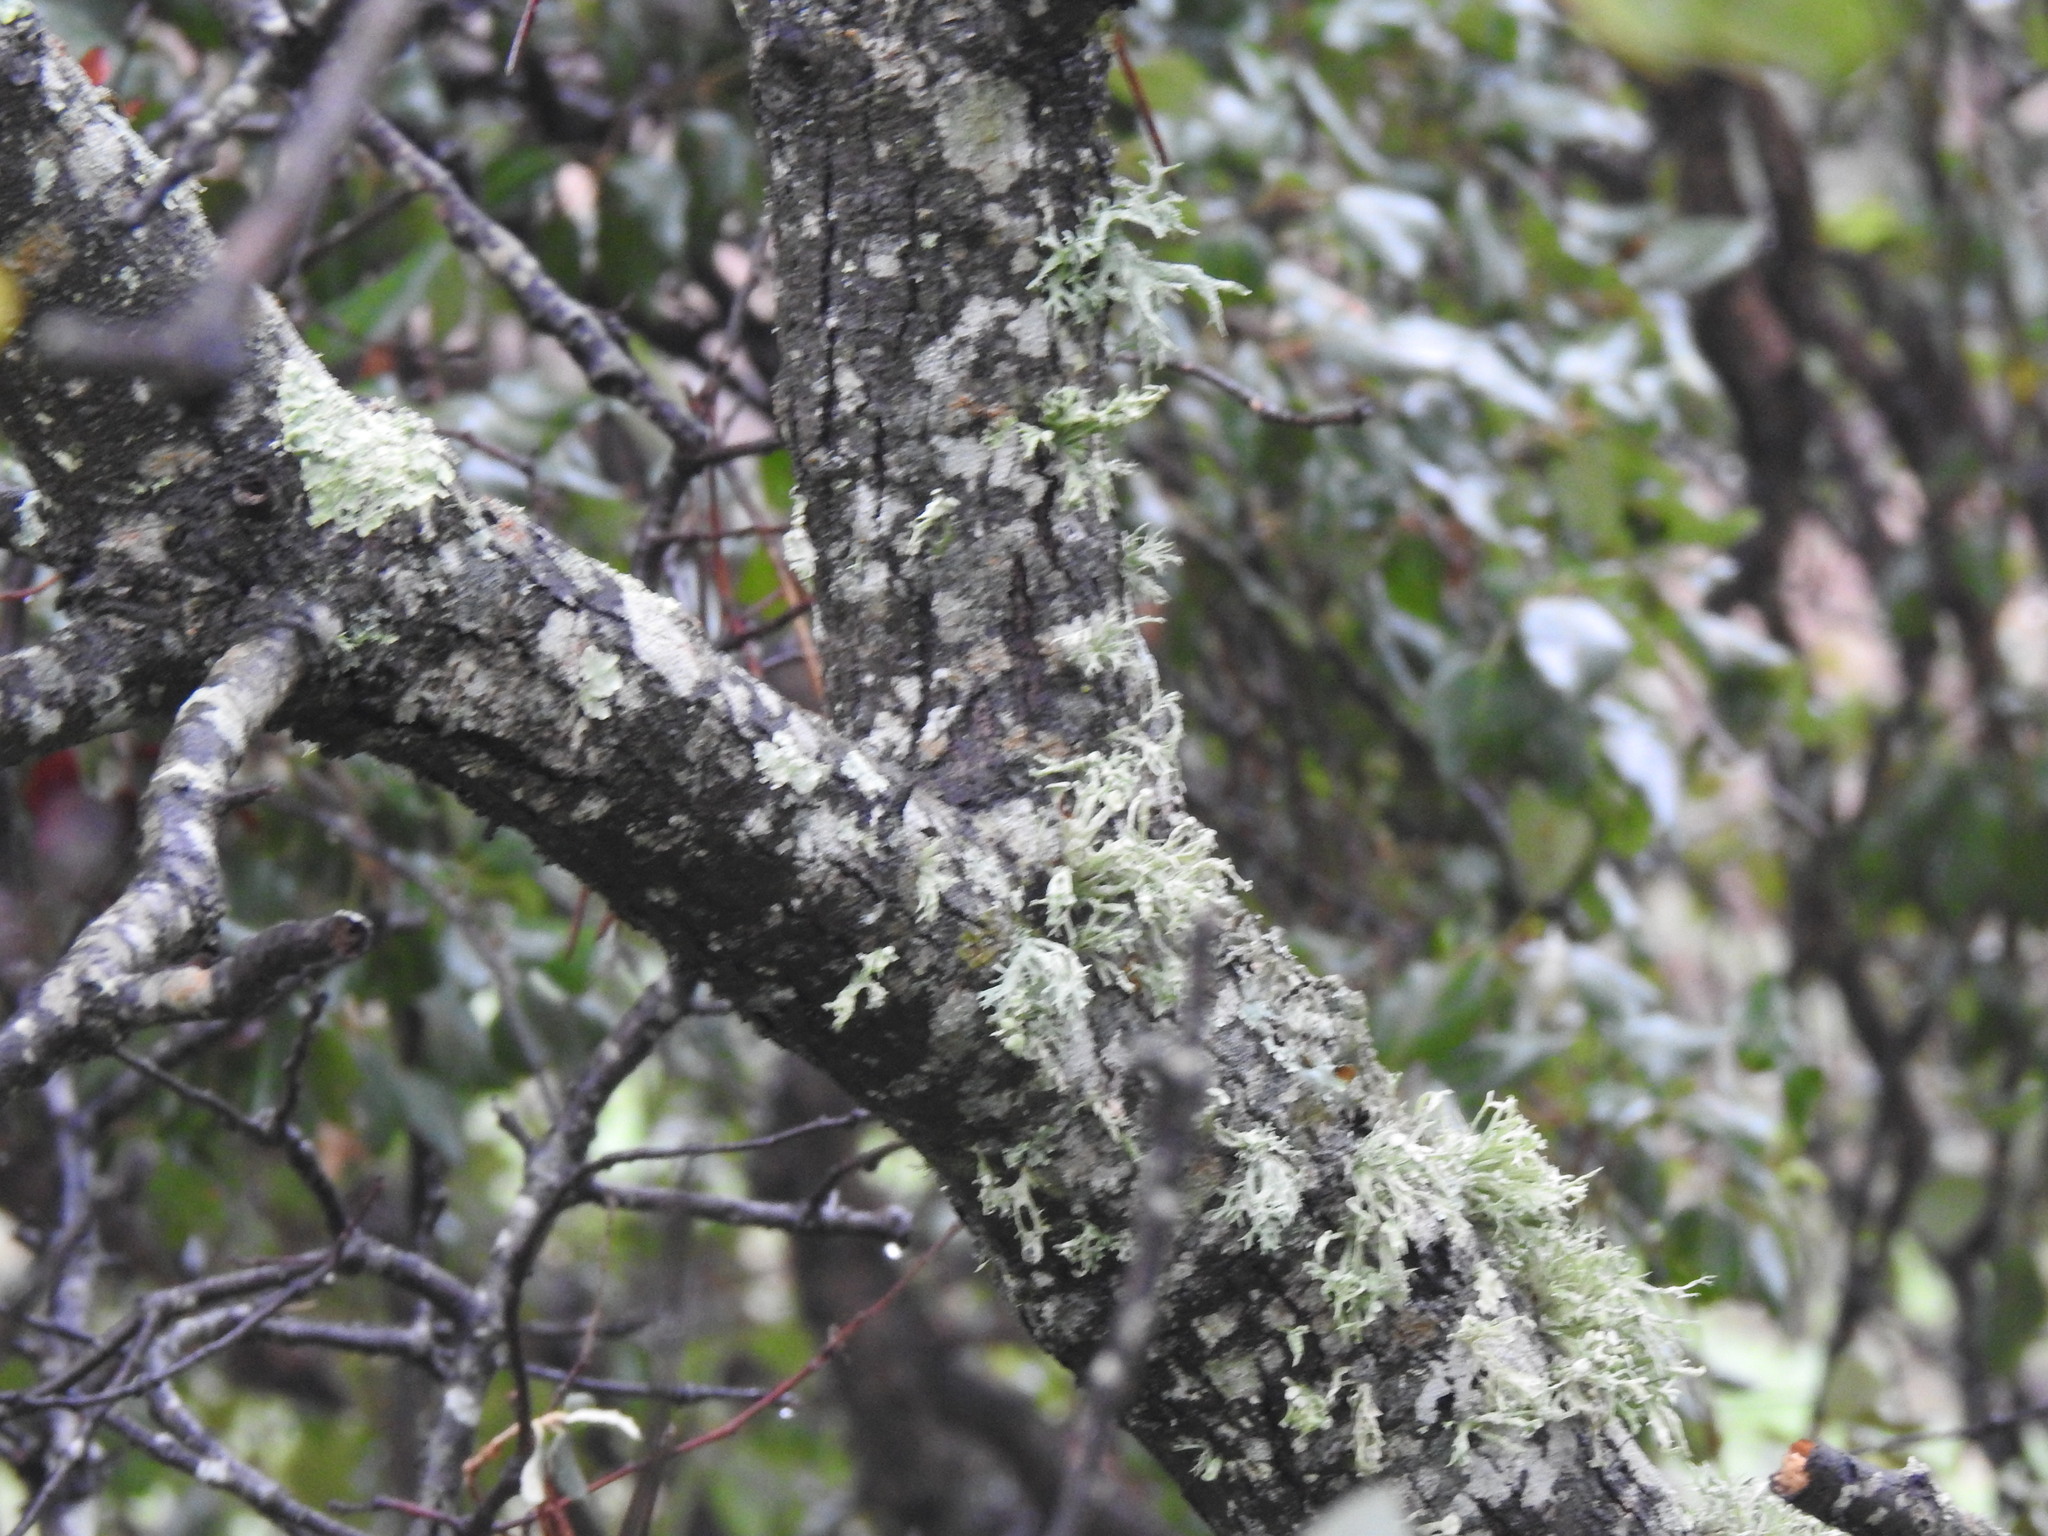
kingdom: Plantae
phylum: Tracheophyta
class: Magnoliopsida
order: Fagales
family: Fagaceae
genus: Quercus
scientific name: Quercus rotundifolia
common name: Holm oak
